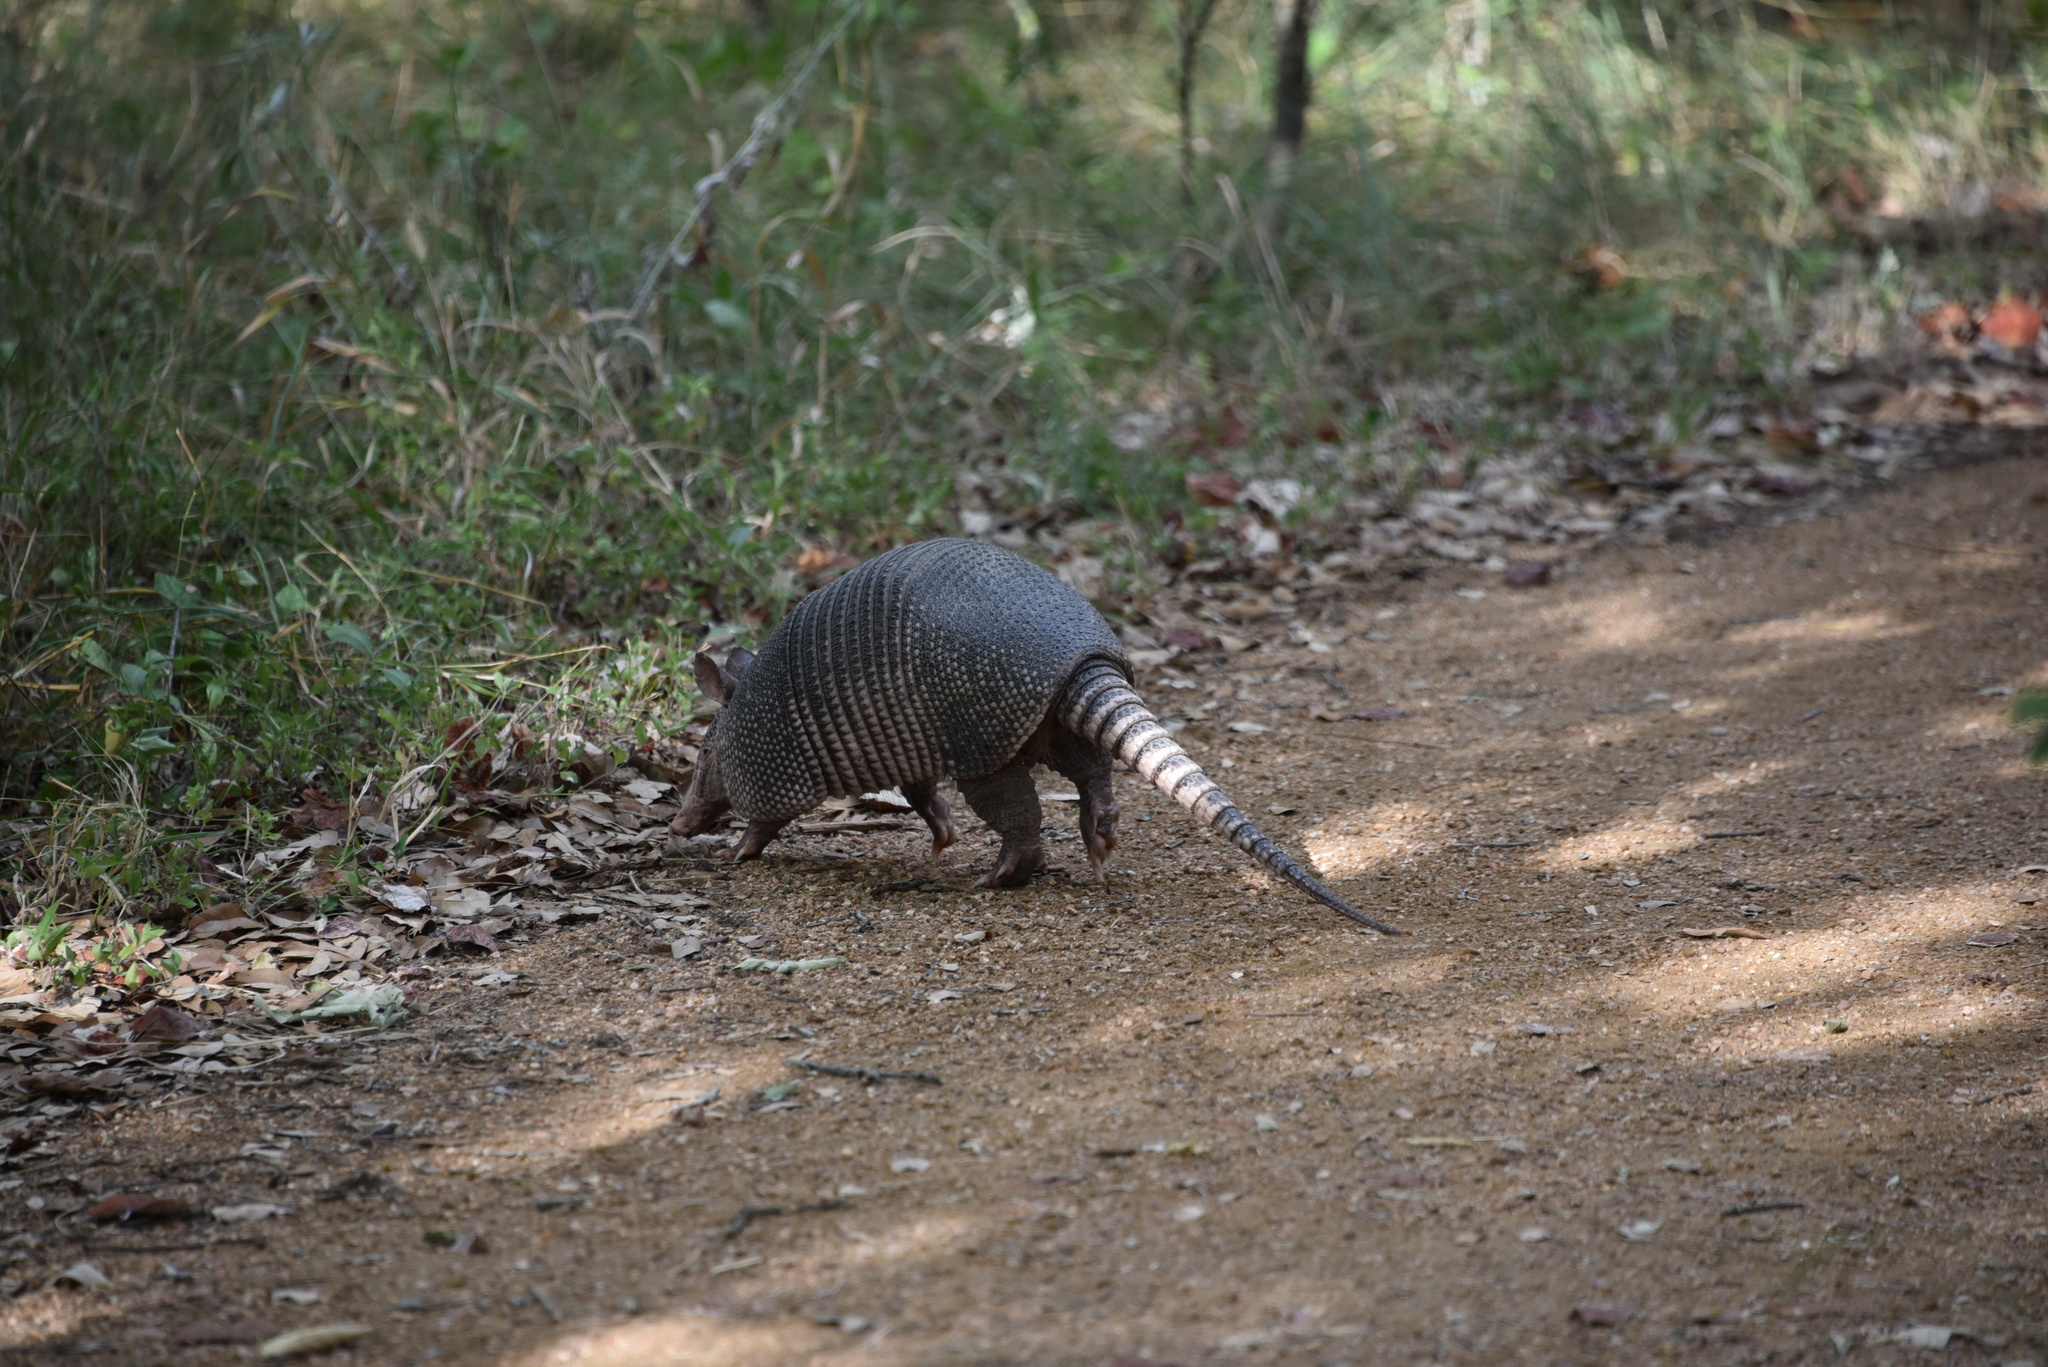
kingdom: Animalia
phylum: Chordata
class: Mammalia
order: Cingulata
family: Dasypodidae
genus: Dasypus
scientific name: Dasypus novemcinctus
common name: Nine-banded armadillo
